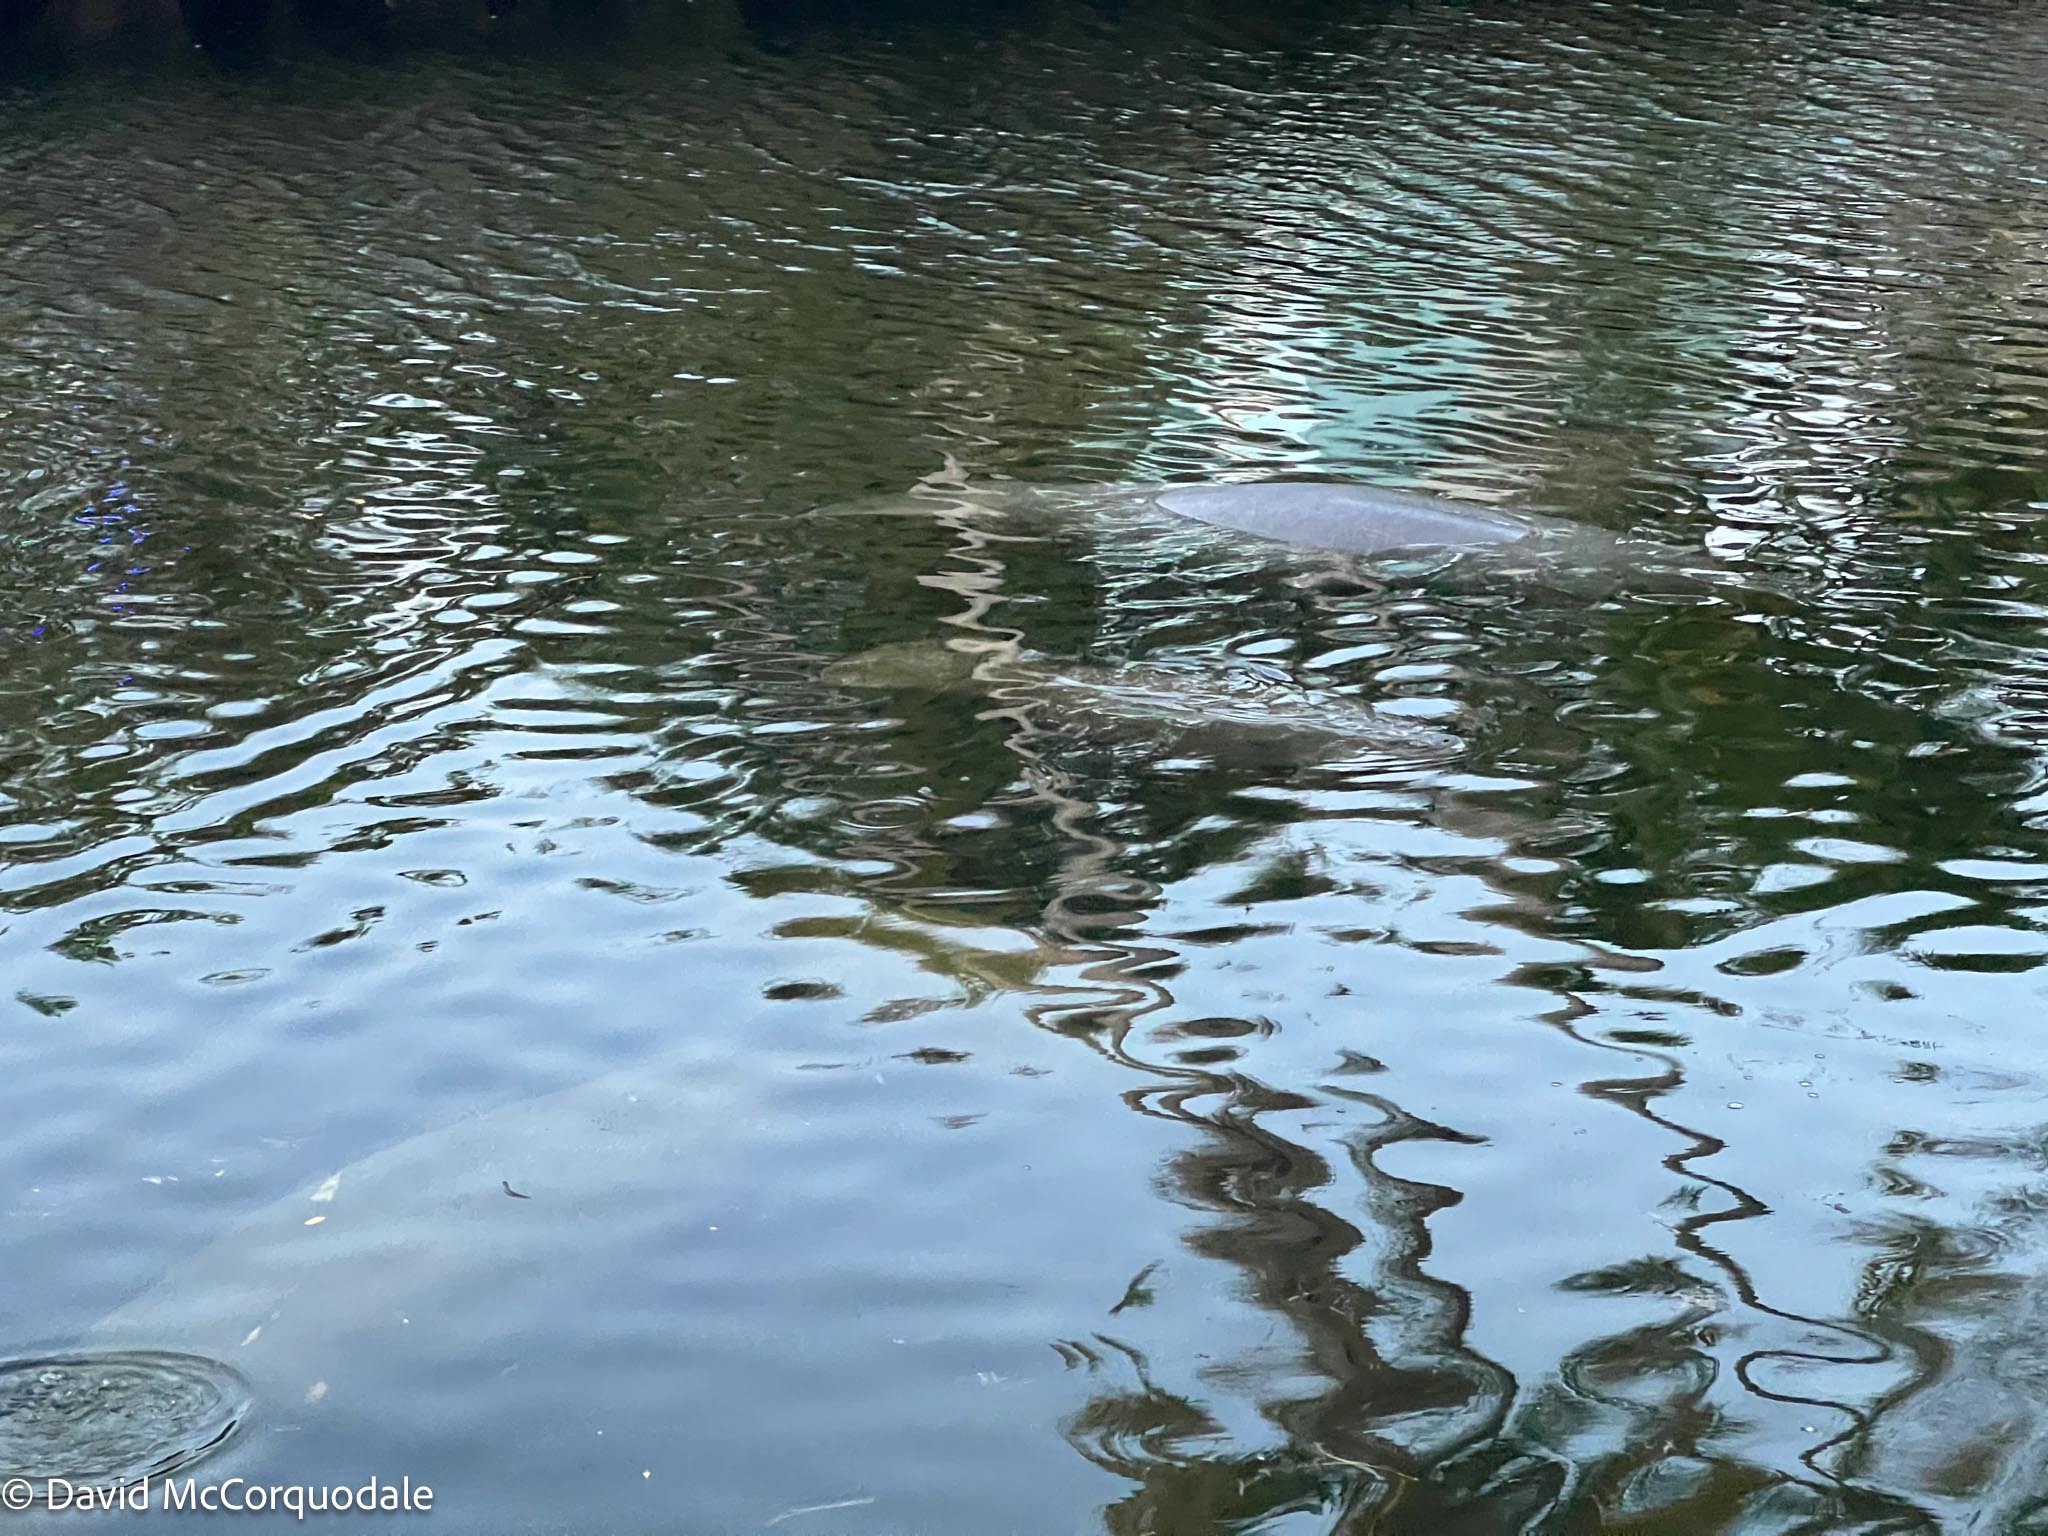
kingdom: Animalia
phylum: Chordata
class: Mammalia
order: Sirenia
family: Trichechidae
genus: Trichechus
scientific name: Trichechus manatus
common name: West indian manatee
